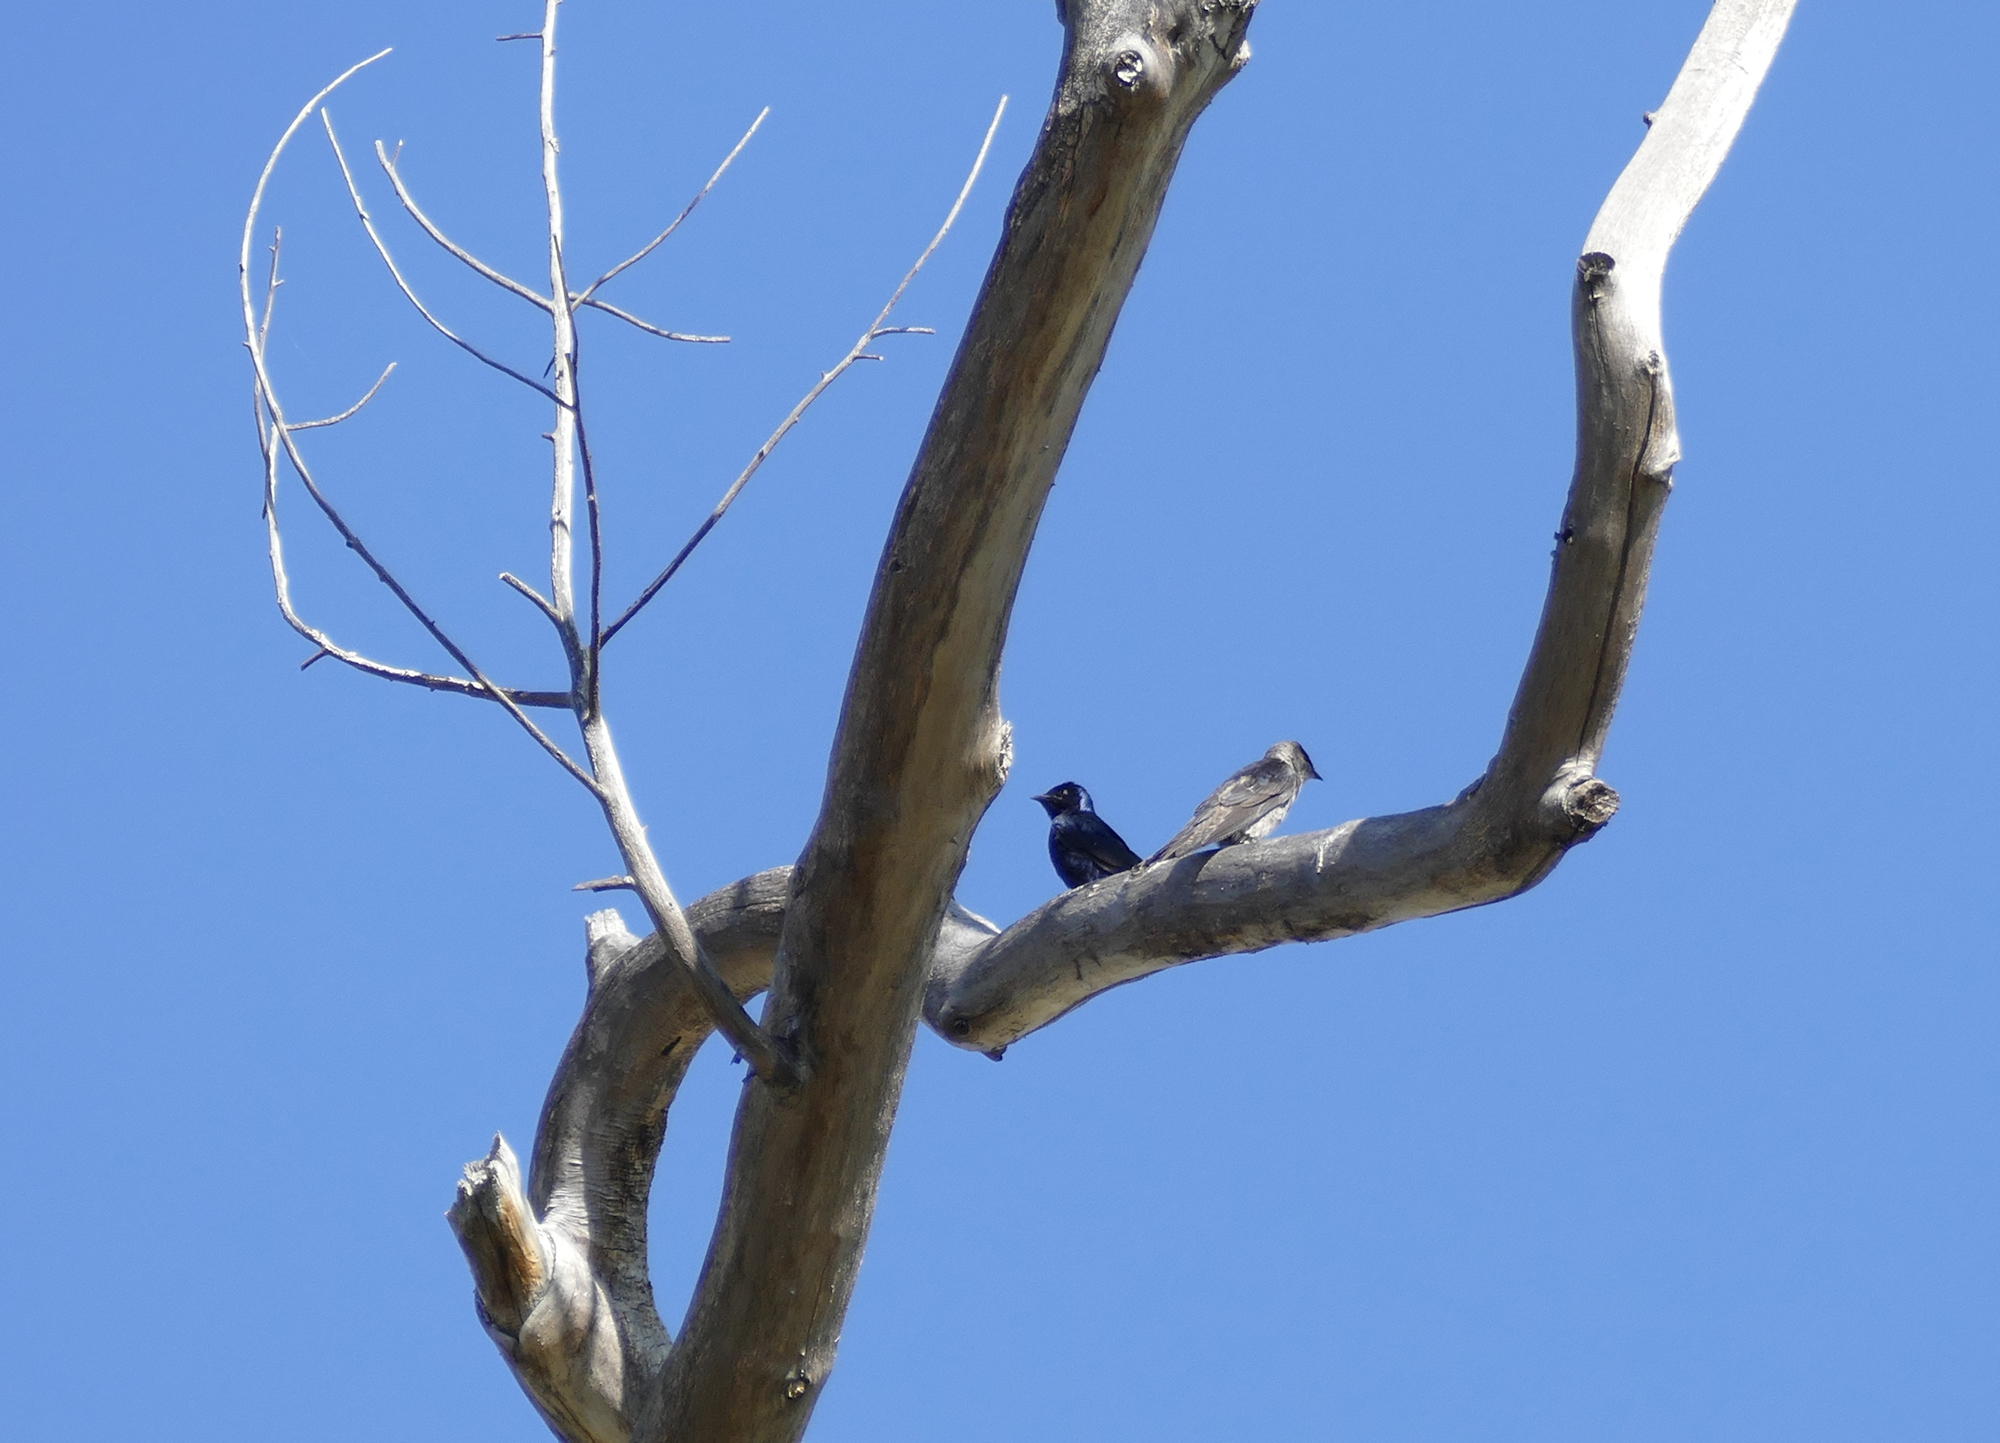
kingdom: Animalia
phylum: Chordata
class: Aves
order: Passeriformes
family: Hirundinidae
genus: Progne
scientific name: Progne subis
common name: Purple martin
